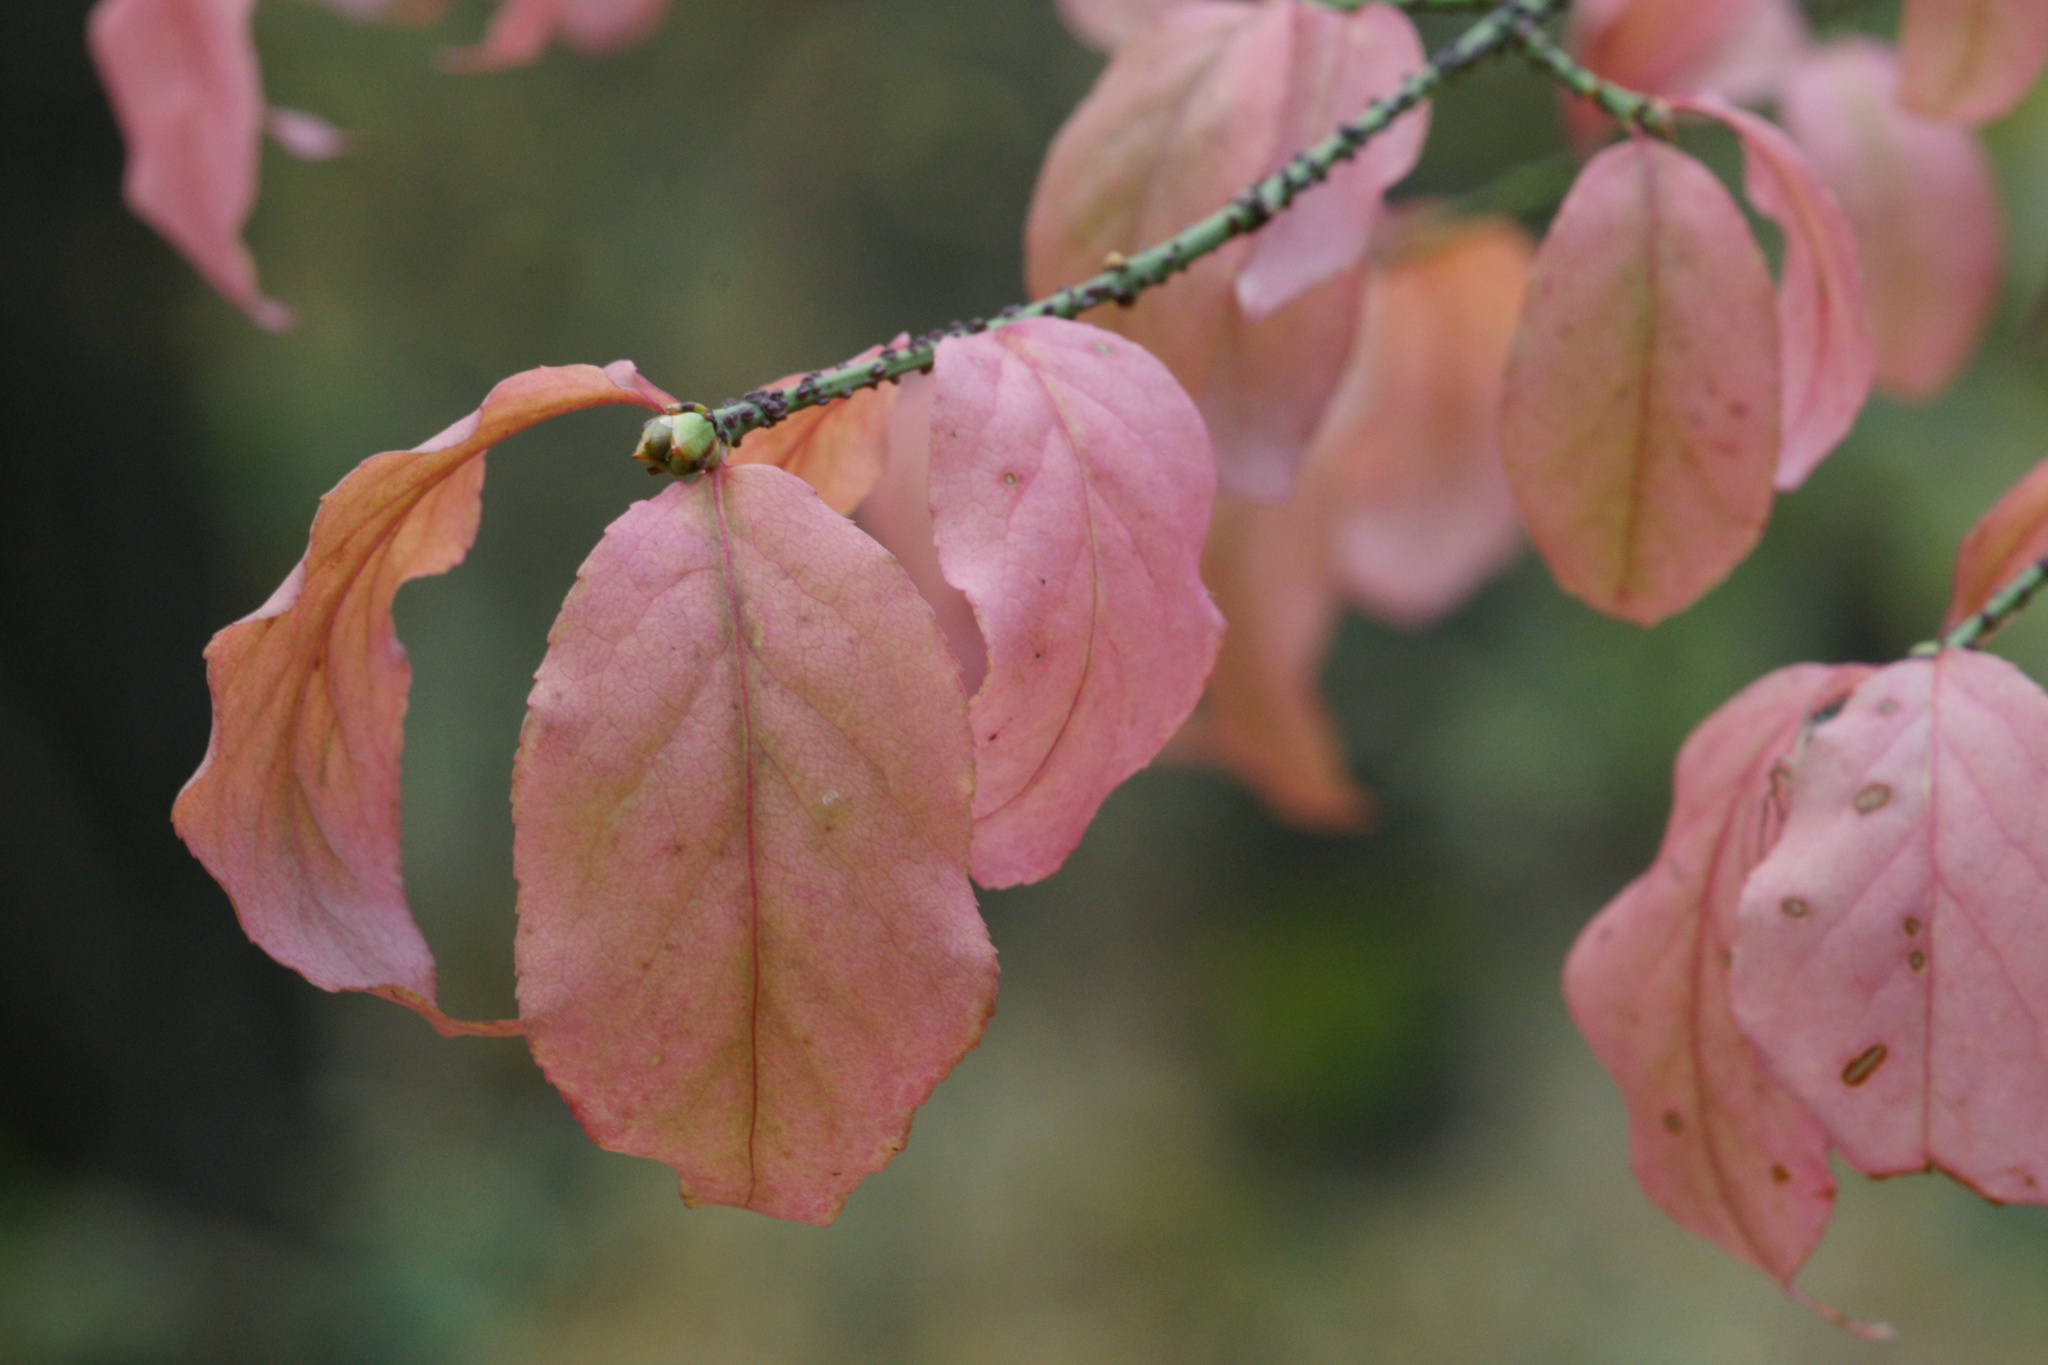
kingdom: Plantae
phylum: Tracheophyta
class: Magnoliopsida
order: Celastrales
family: Celastraceae
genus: Euonymus
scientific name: Euonymus verrucosus
